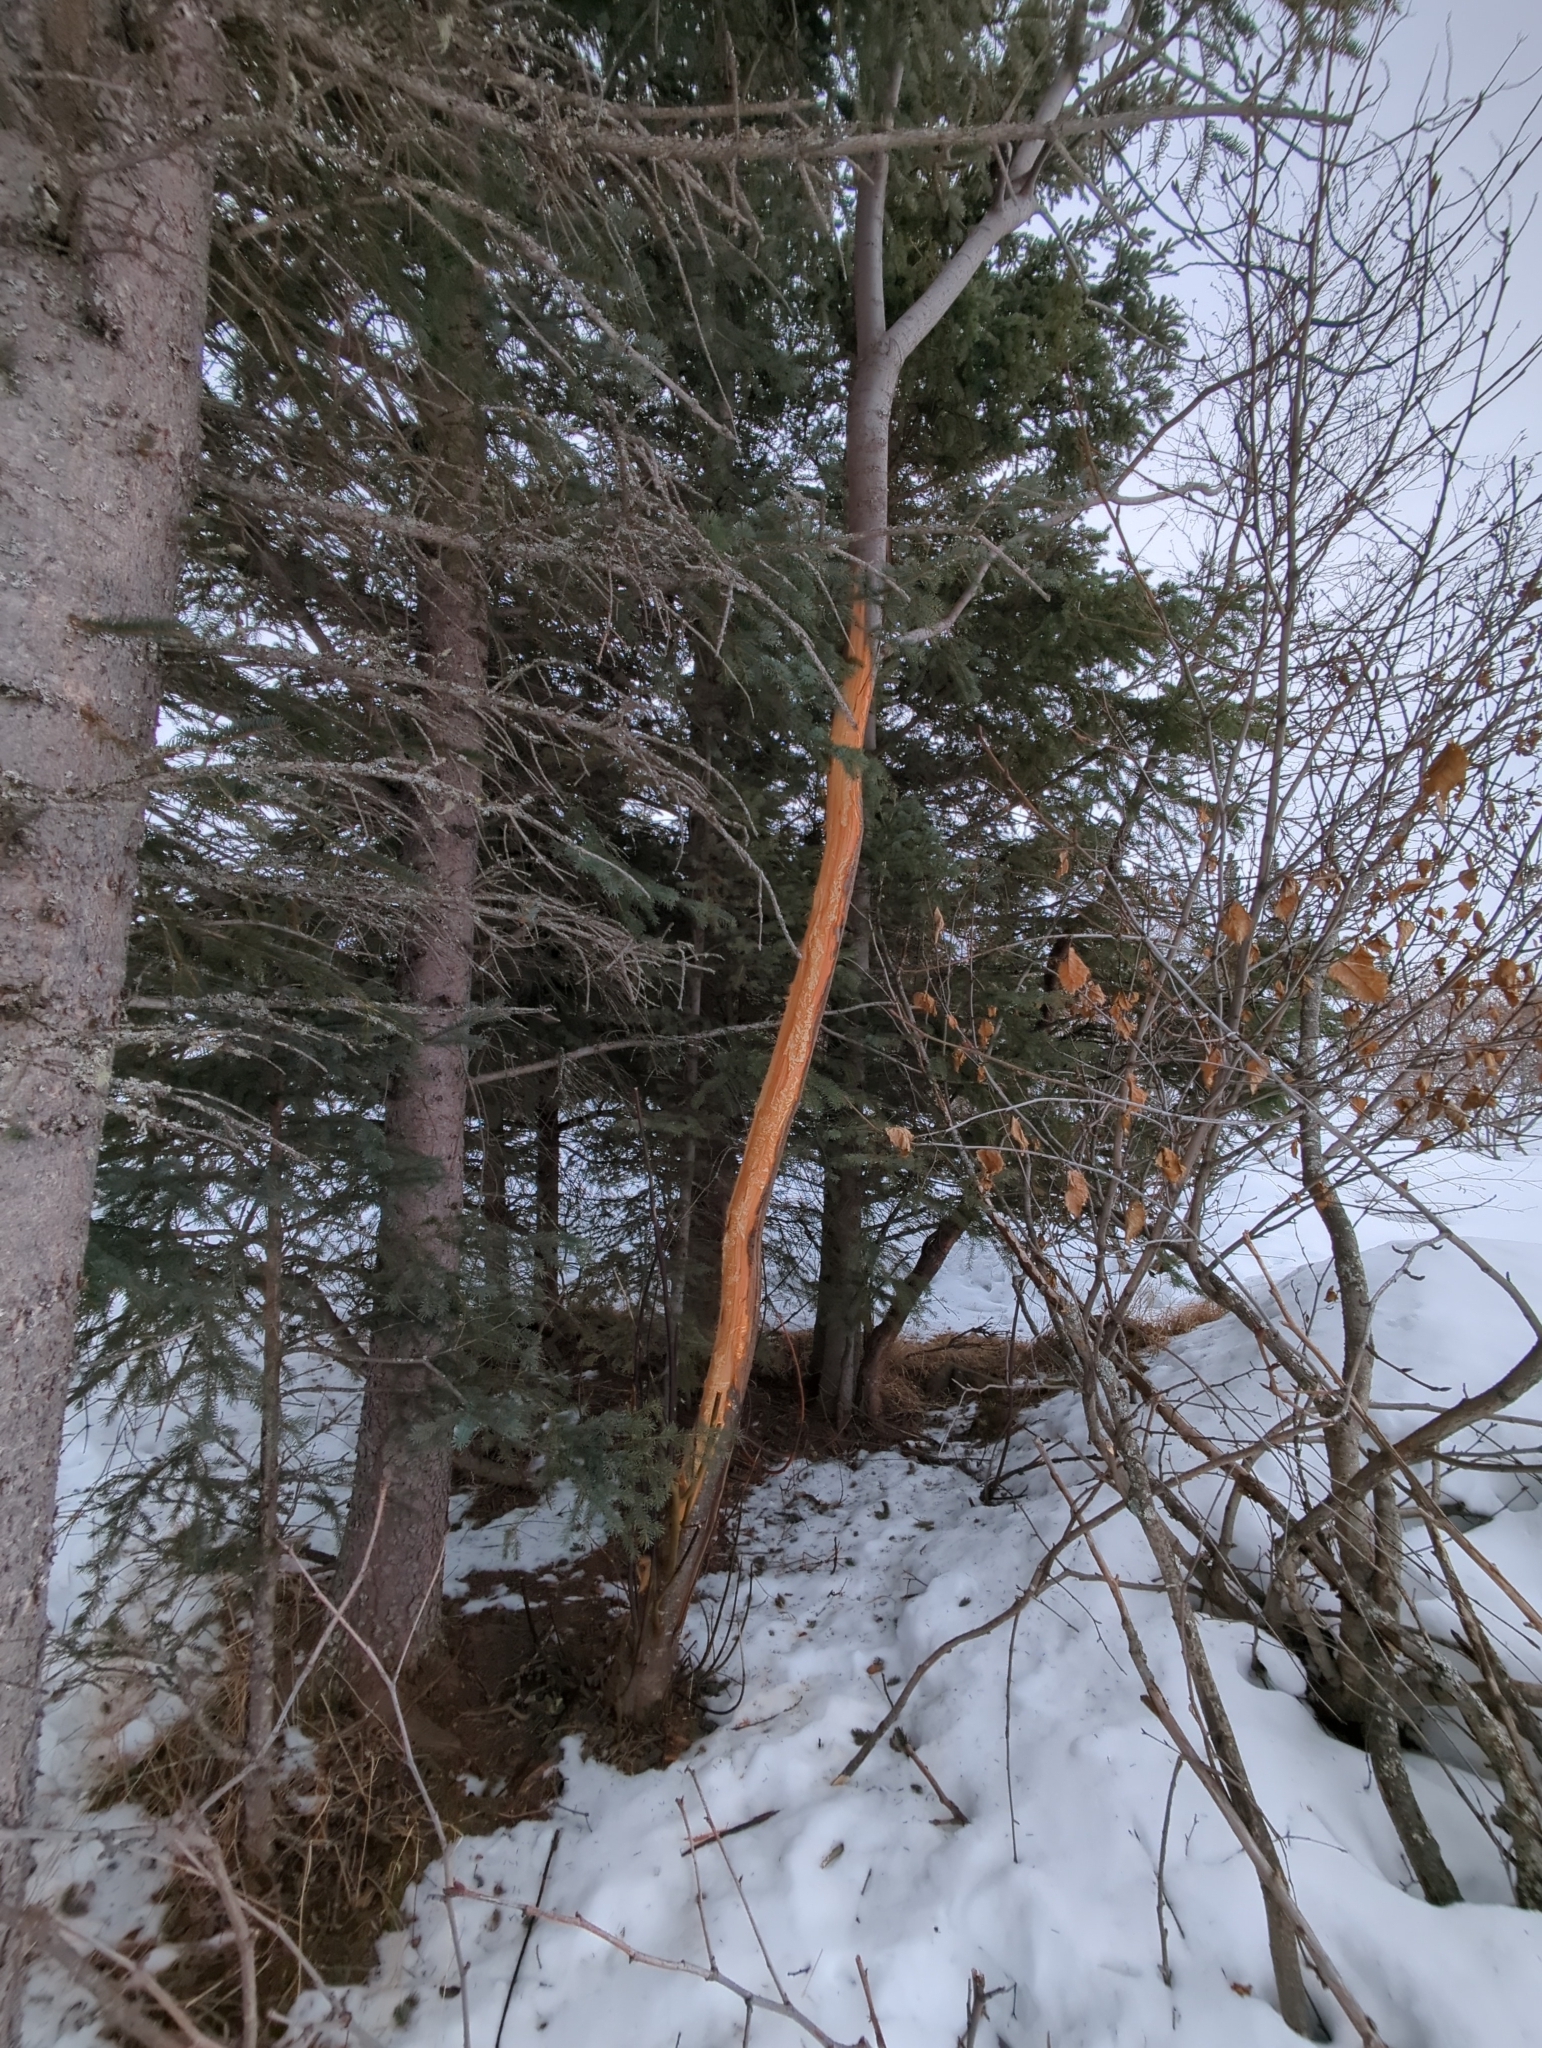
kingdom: Animalia
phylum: Chordata
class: Mammalia
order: Artiodactyla
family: Cervidae
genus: Alces
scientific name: Alces alces
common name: Moose
